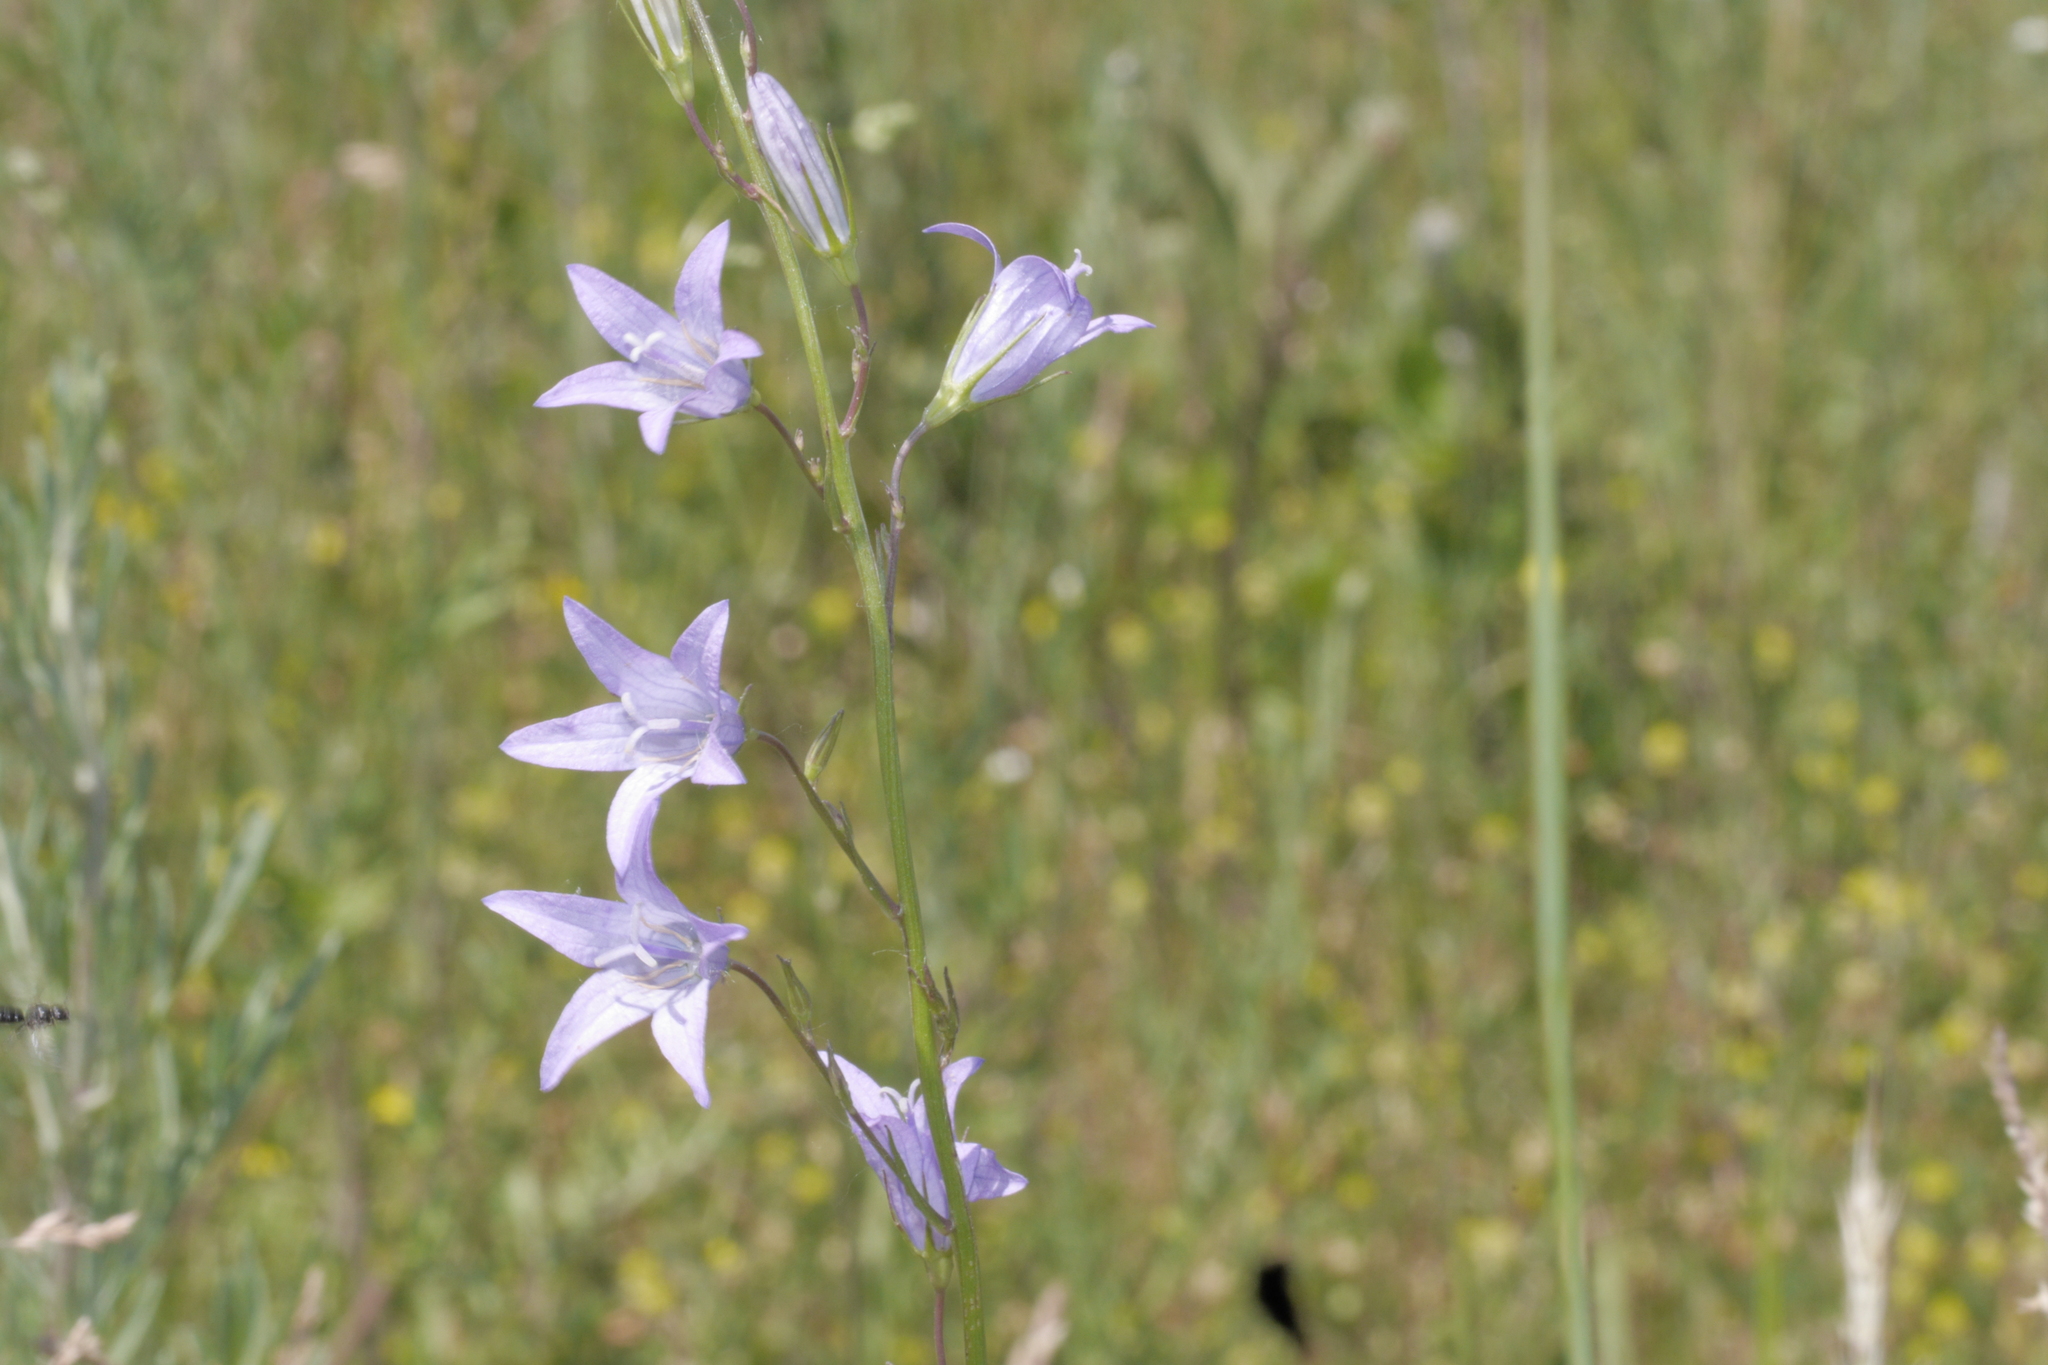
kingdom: Plantae
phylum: Tracheophyta
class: Magnoliopsida
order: Asterales
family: Campanulaceae
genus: Campanula
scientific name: Campanula patula
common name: Spreading bellflower
